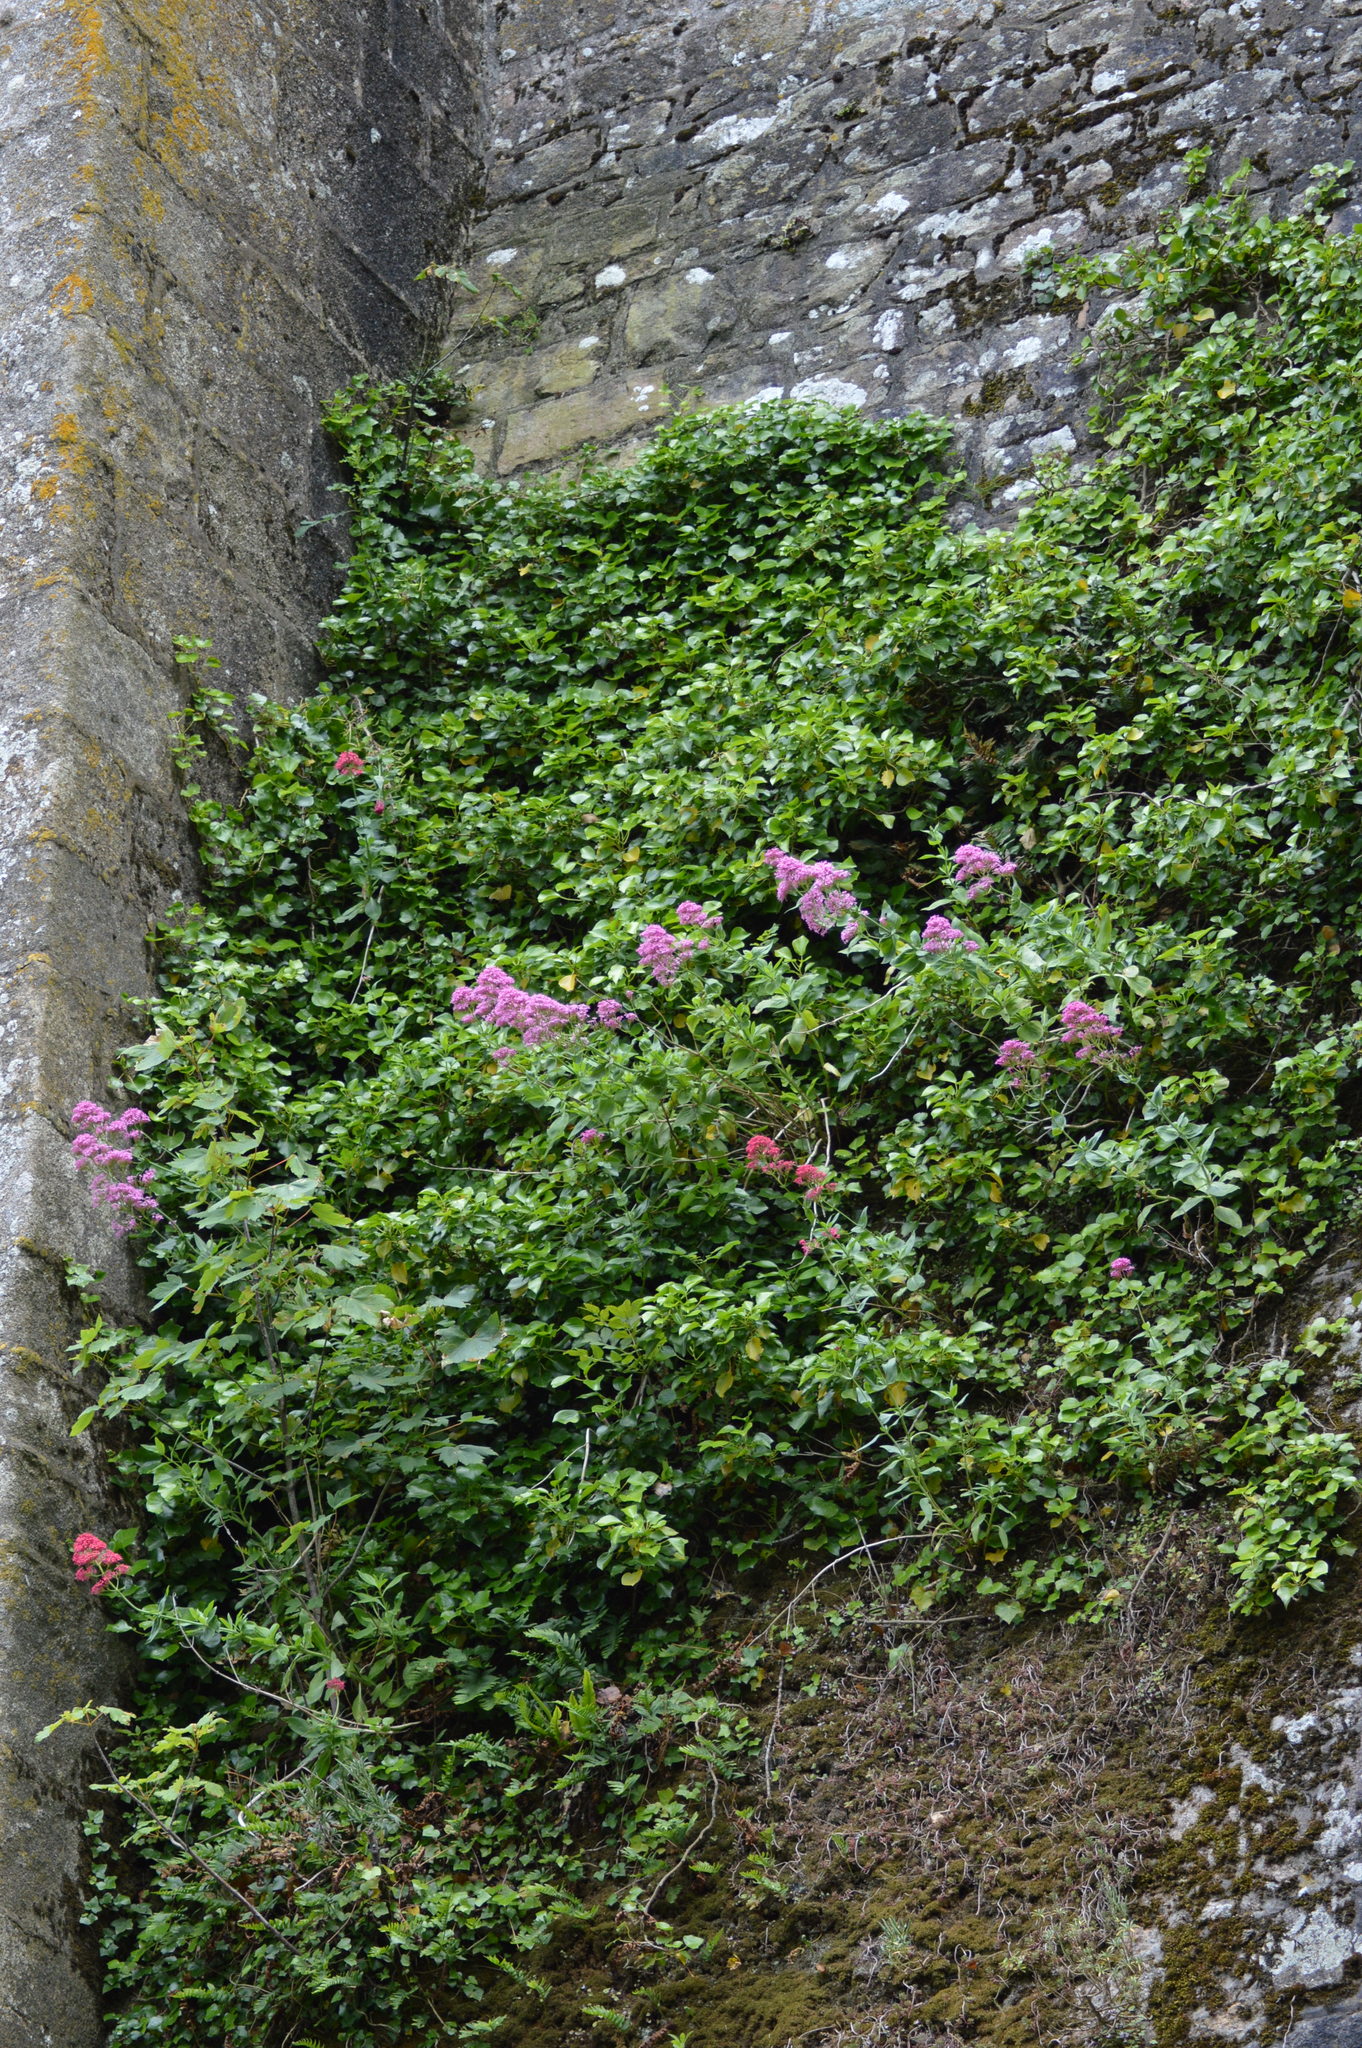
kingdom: Plantae
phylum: Tracheophyta
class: Magnoliopsida
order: Dipsacales
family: Caprifoliaceae
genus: Centranthus
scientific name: Centranthus ruber
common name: Red valerian
